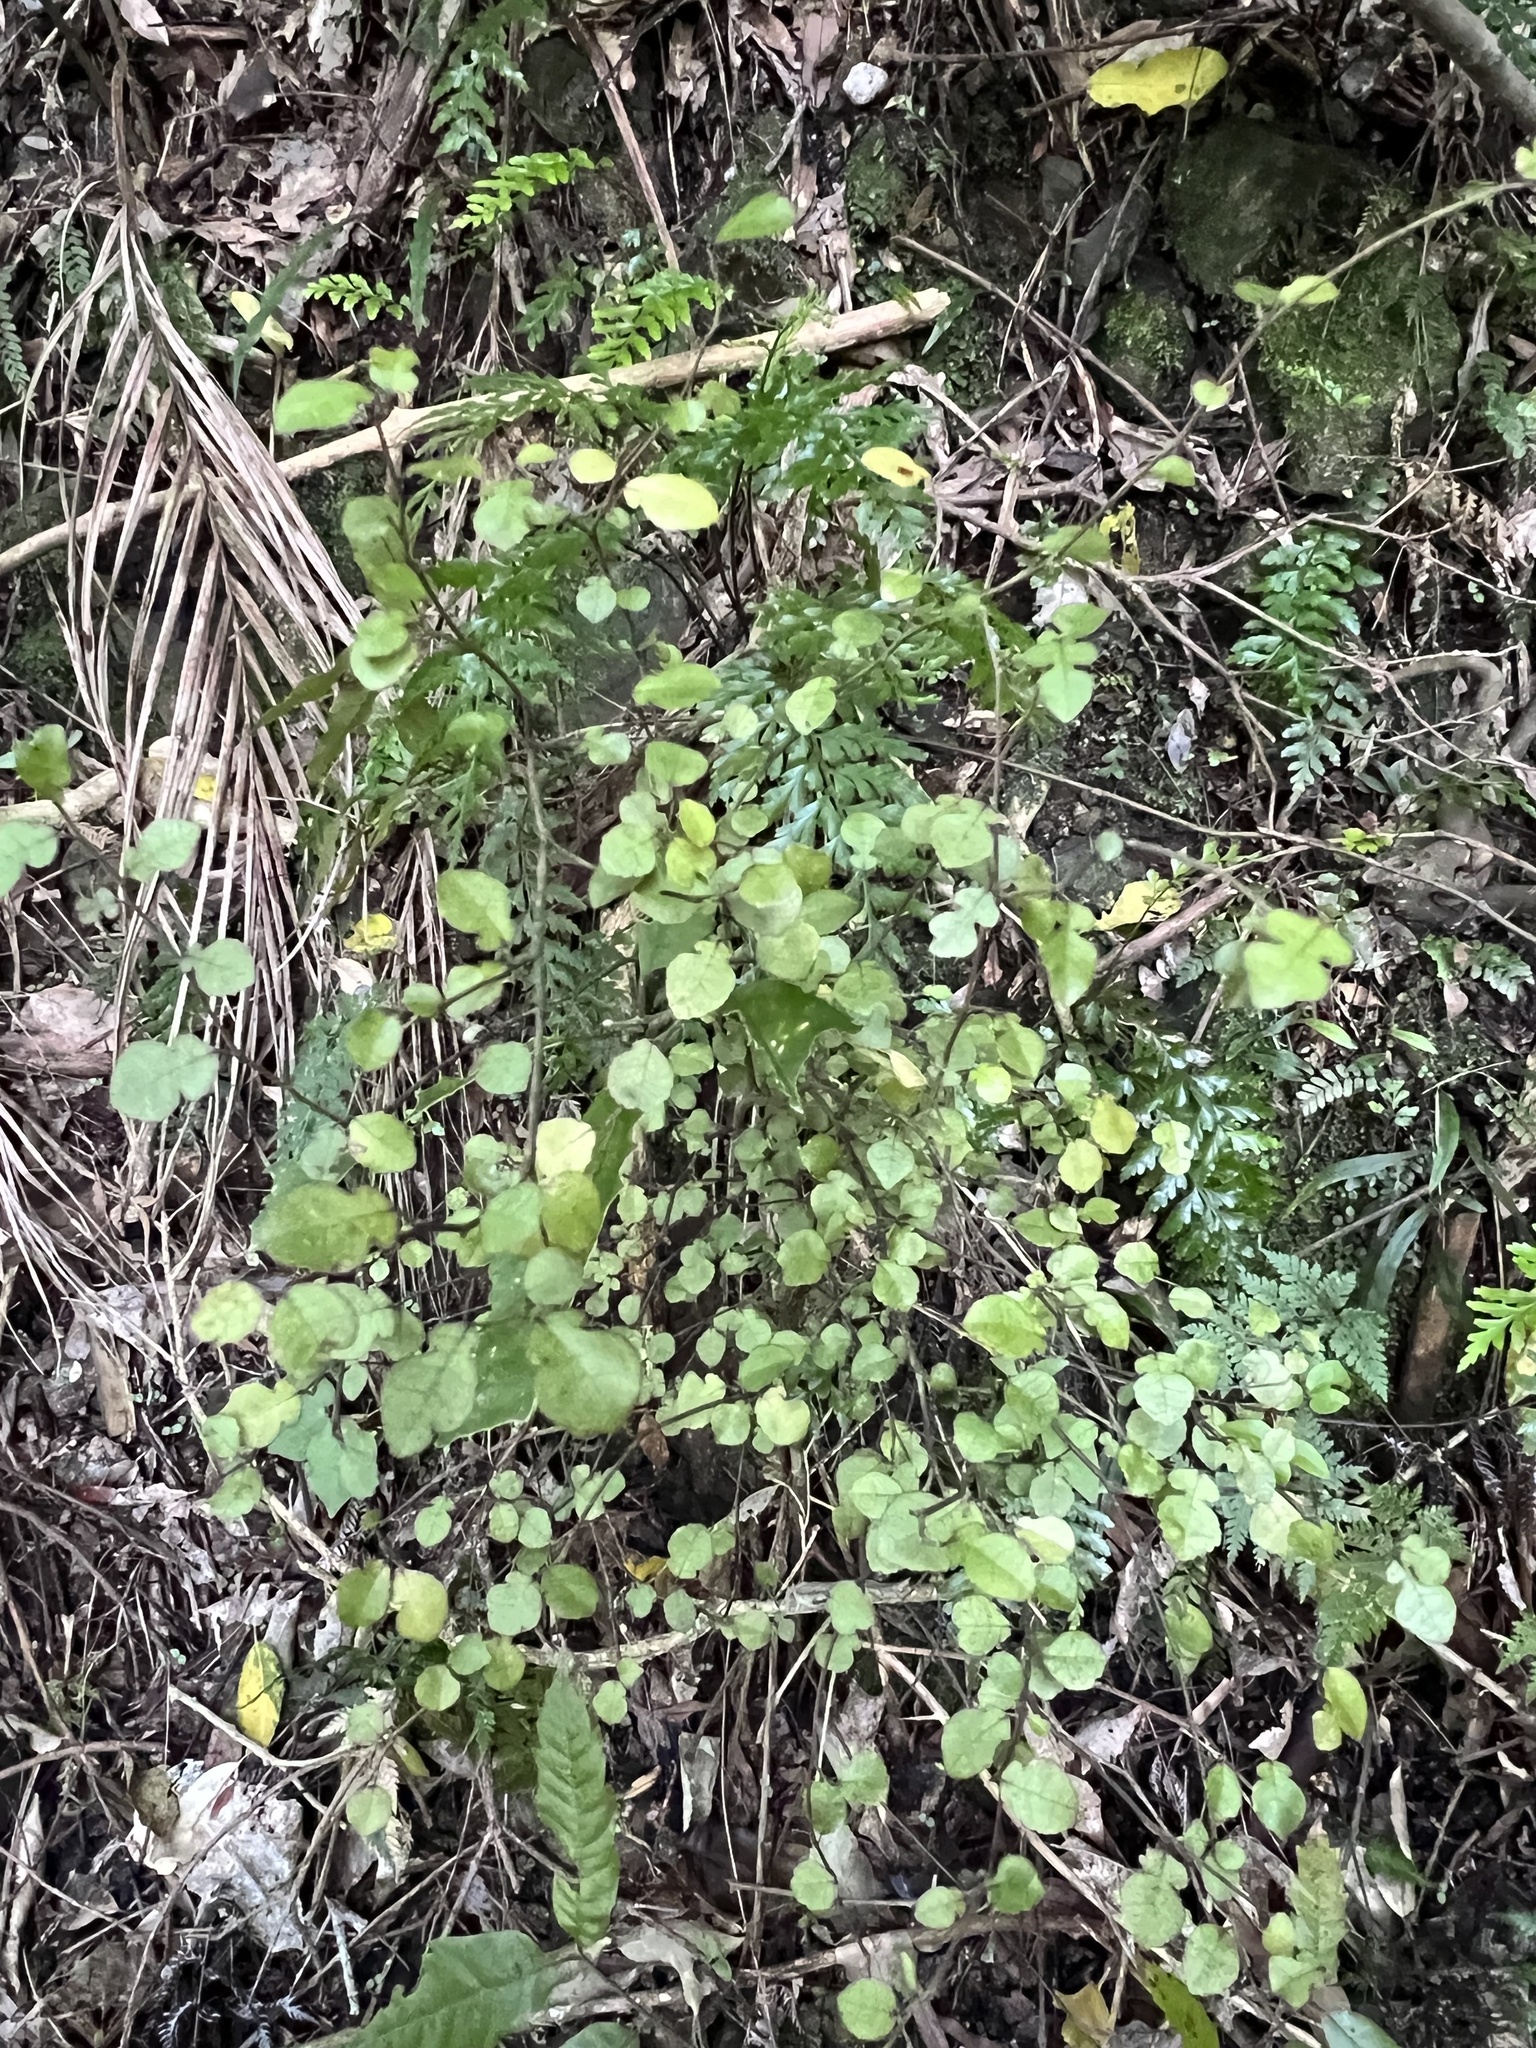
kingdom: Plantae
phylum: Tracheophyta
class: Magnoliopsida
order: Rosales
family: Moraceae
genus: Paratrophis
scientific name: Paratrophis microphylla
